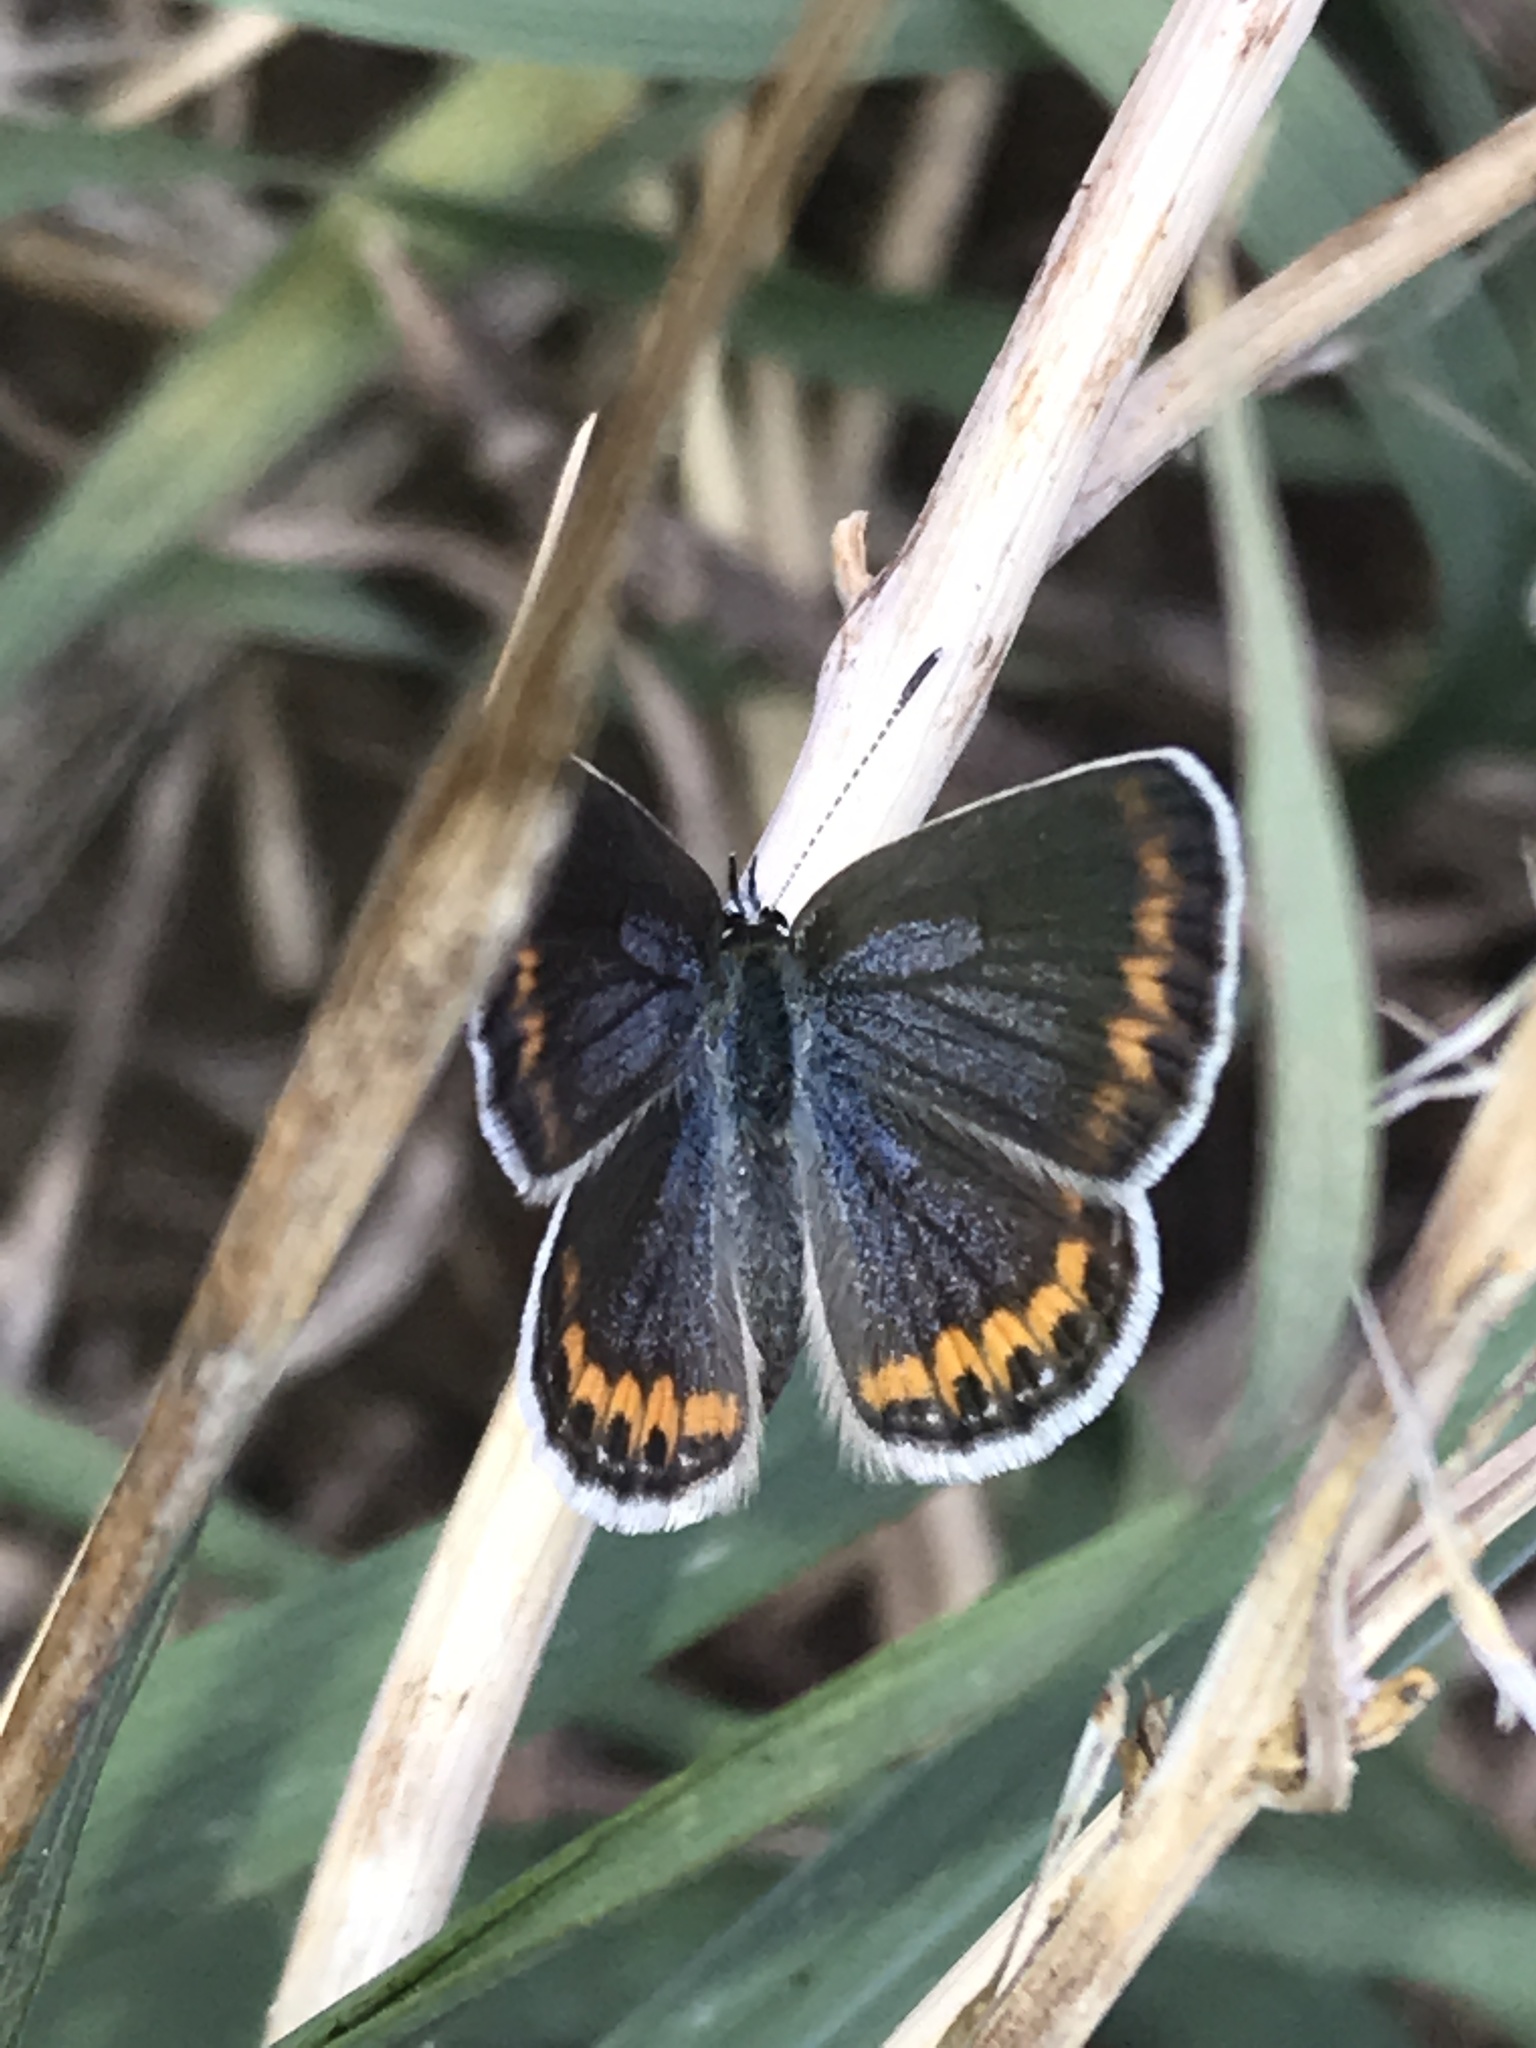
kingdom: Animalia
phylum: Arthropoda
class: Insecta
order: Lepidoptera
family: Lycaenidae
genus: Lycaeides
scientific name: Lycaeides melissa
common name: Melissa blue
